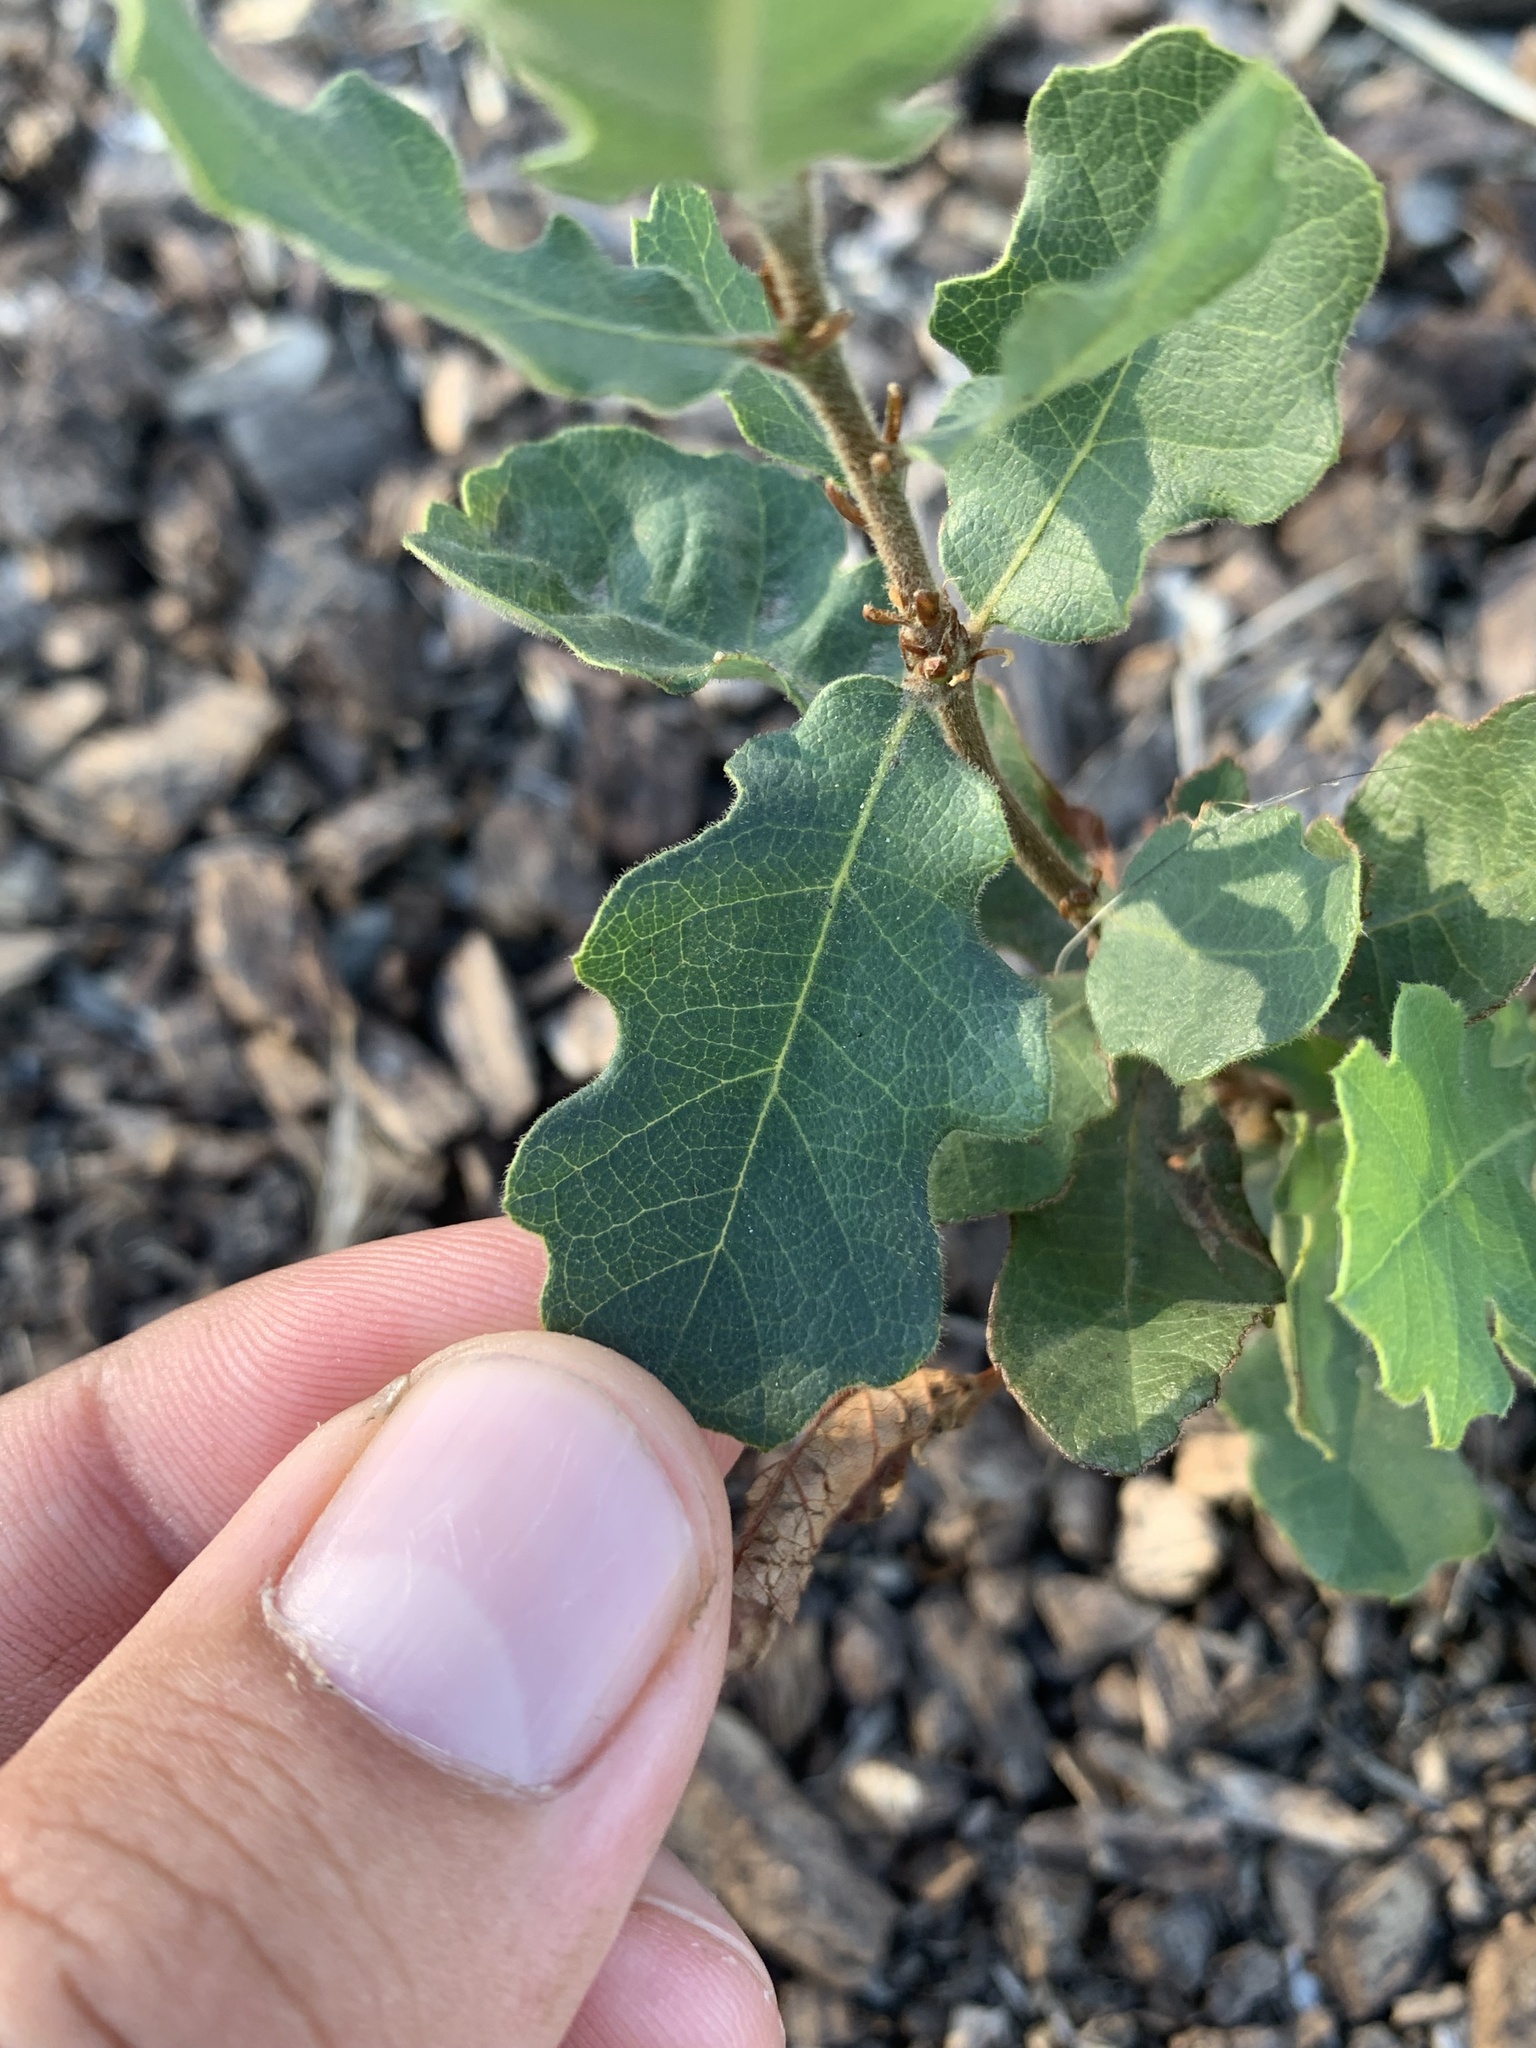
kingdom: Plantae
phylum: Tracheophyta
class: Magnoliopsida
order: Fagales
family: Fagaceae
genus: Quercus
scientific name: Quercus douglasii
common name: Blue oak
